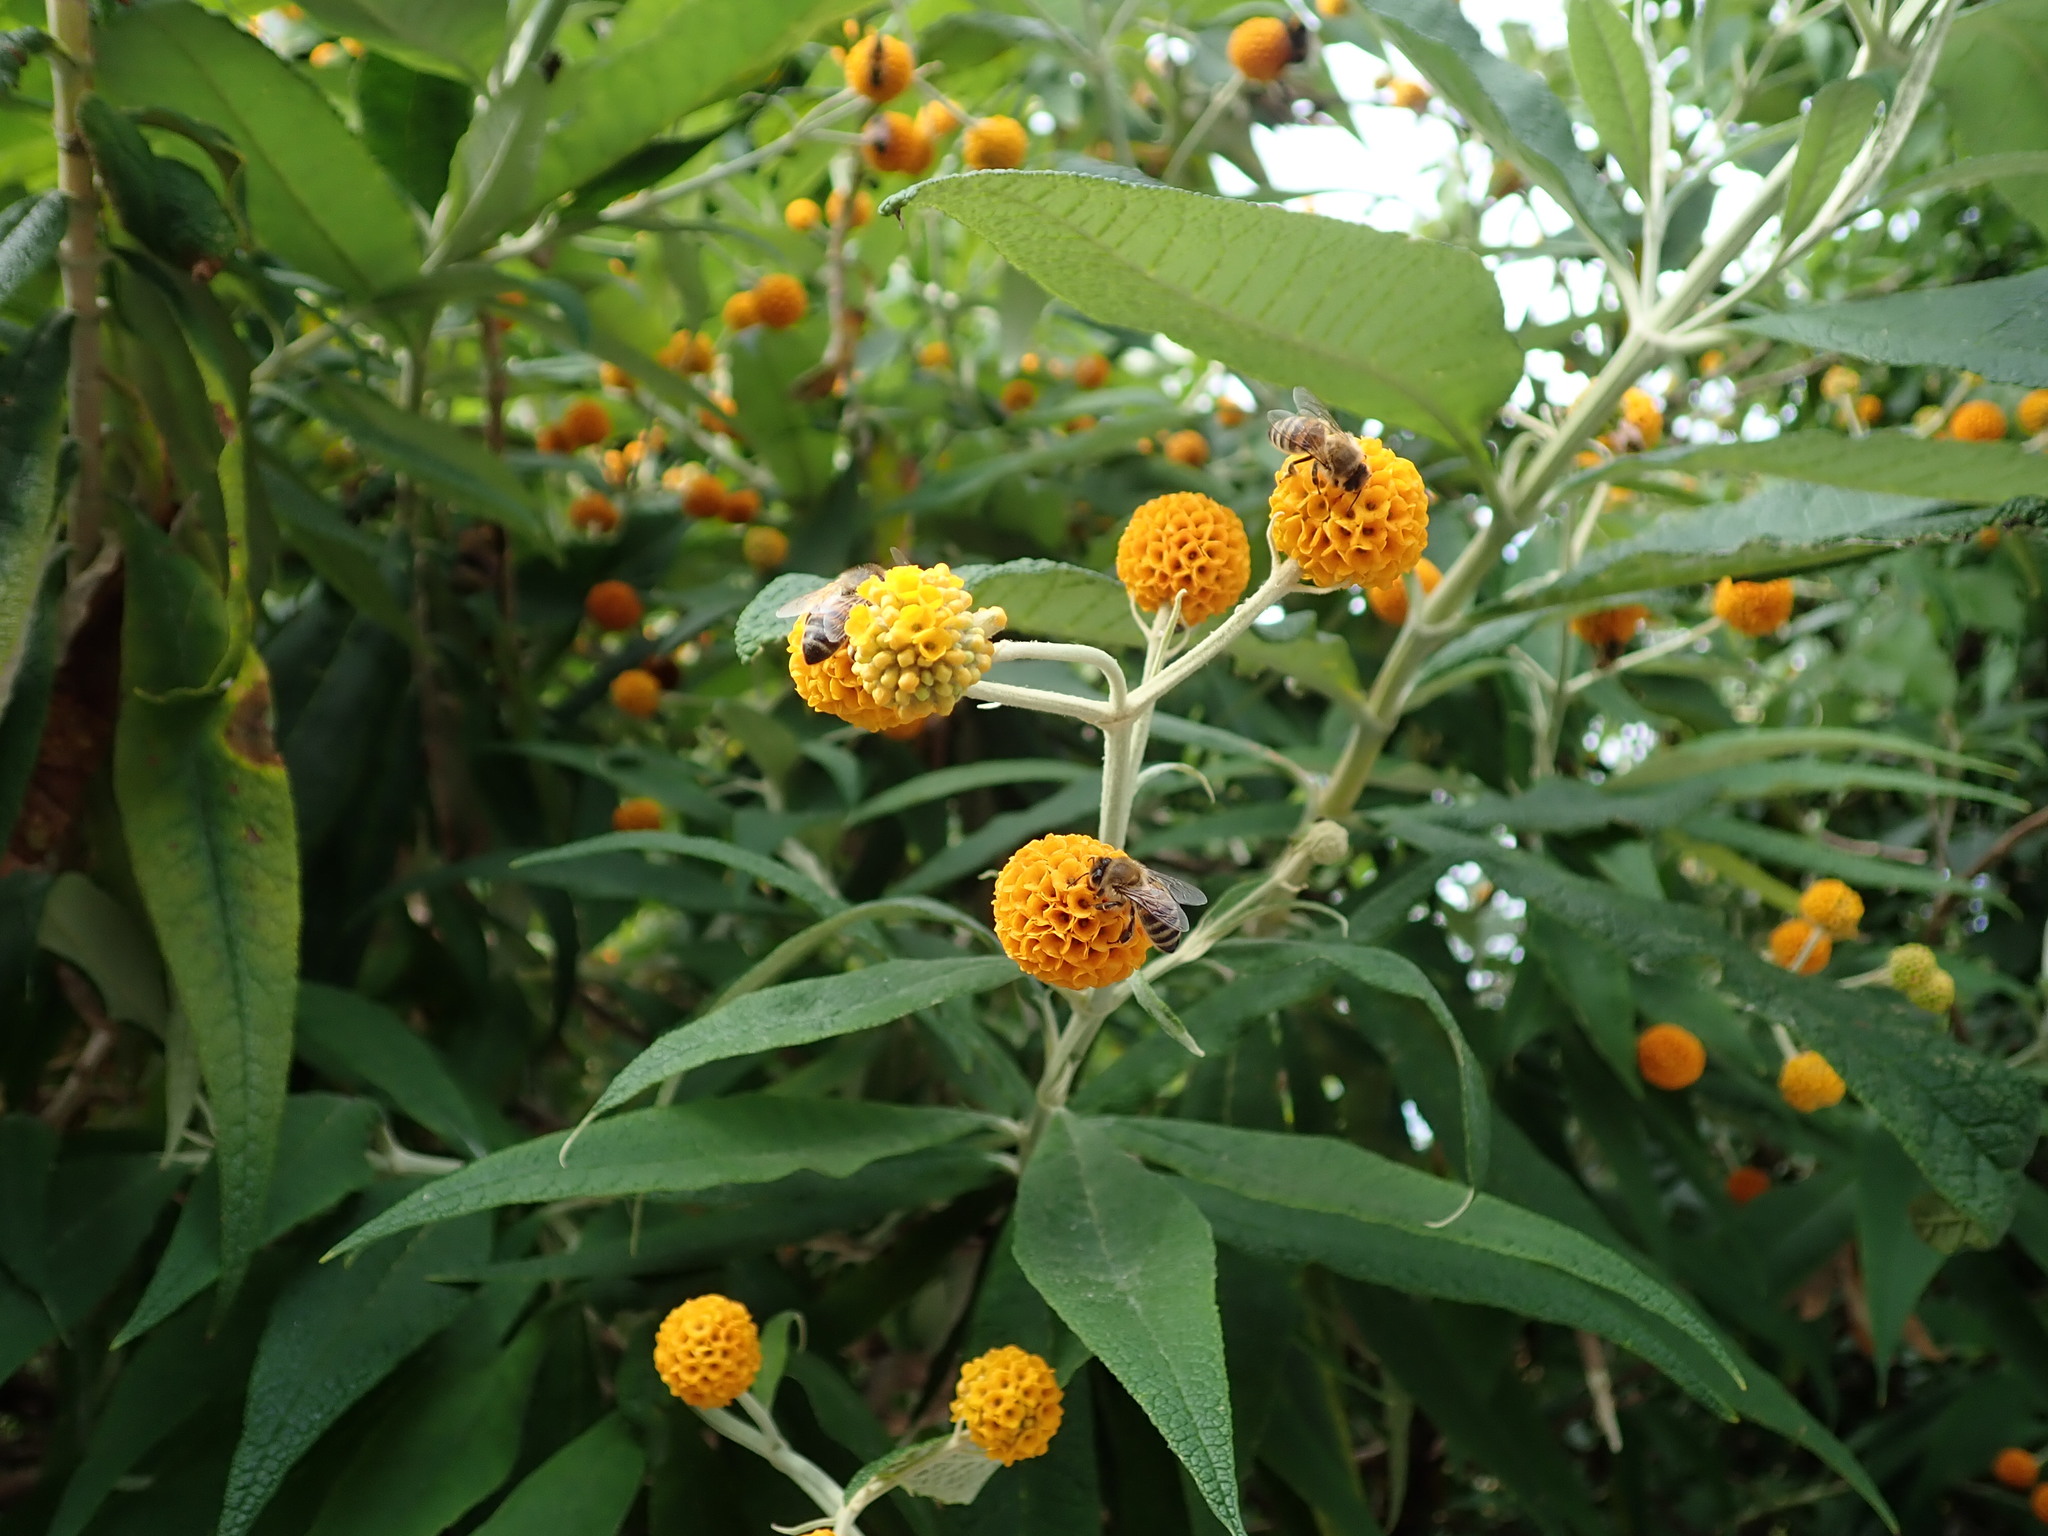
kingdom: Animalia
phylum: Arthropoda
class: Insecta
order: Hymenoptera
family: Apidae
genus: Apis
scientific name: Apis mellifera
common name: Honey bee
